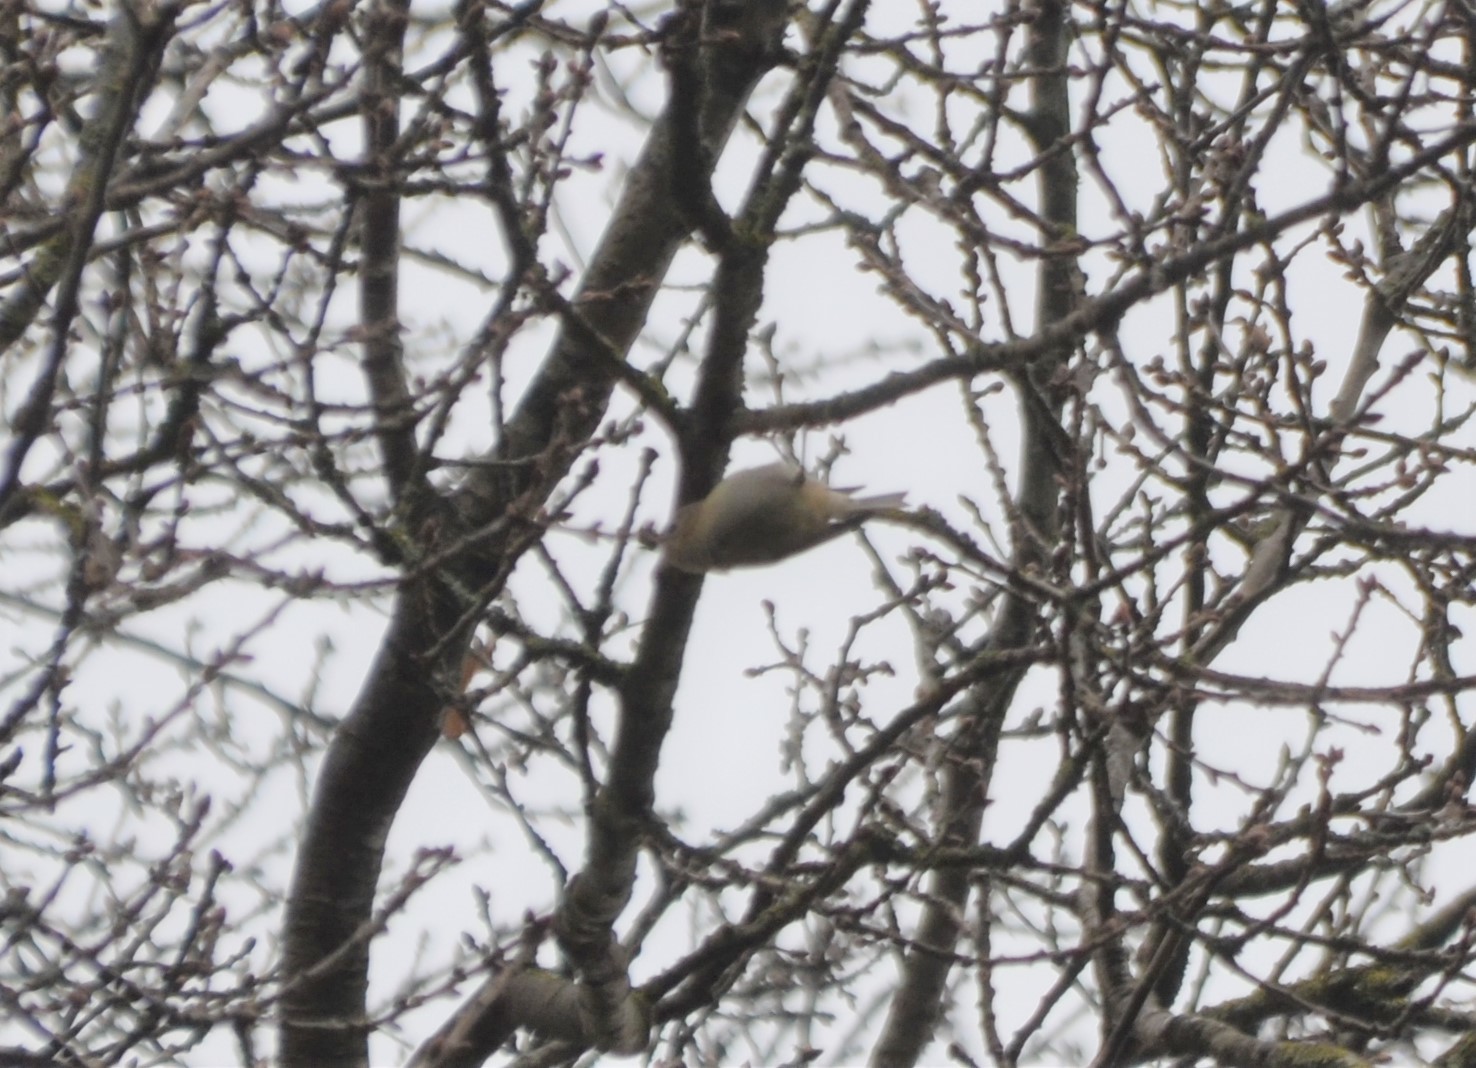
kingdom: Animalia
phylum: Chordata
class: Aves
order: Passeriformes
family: Regulidae
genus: Regulus
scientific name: Regulus regulus
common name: Goldcrest
